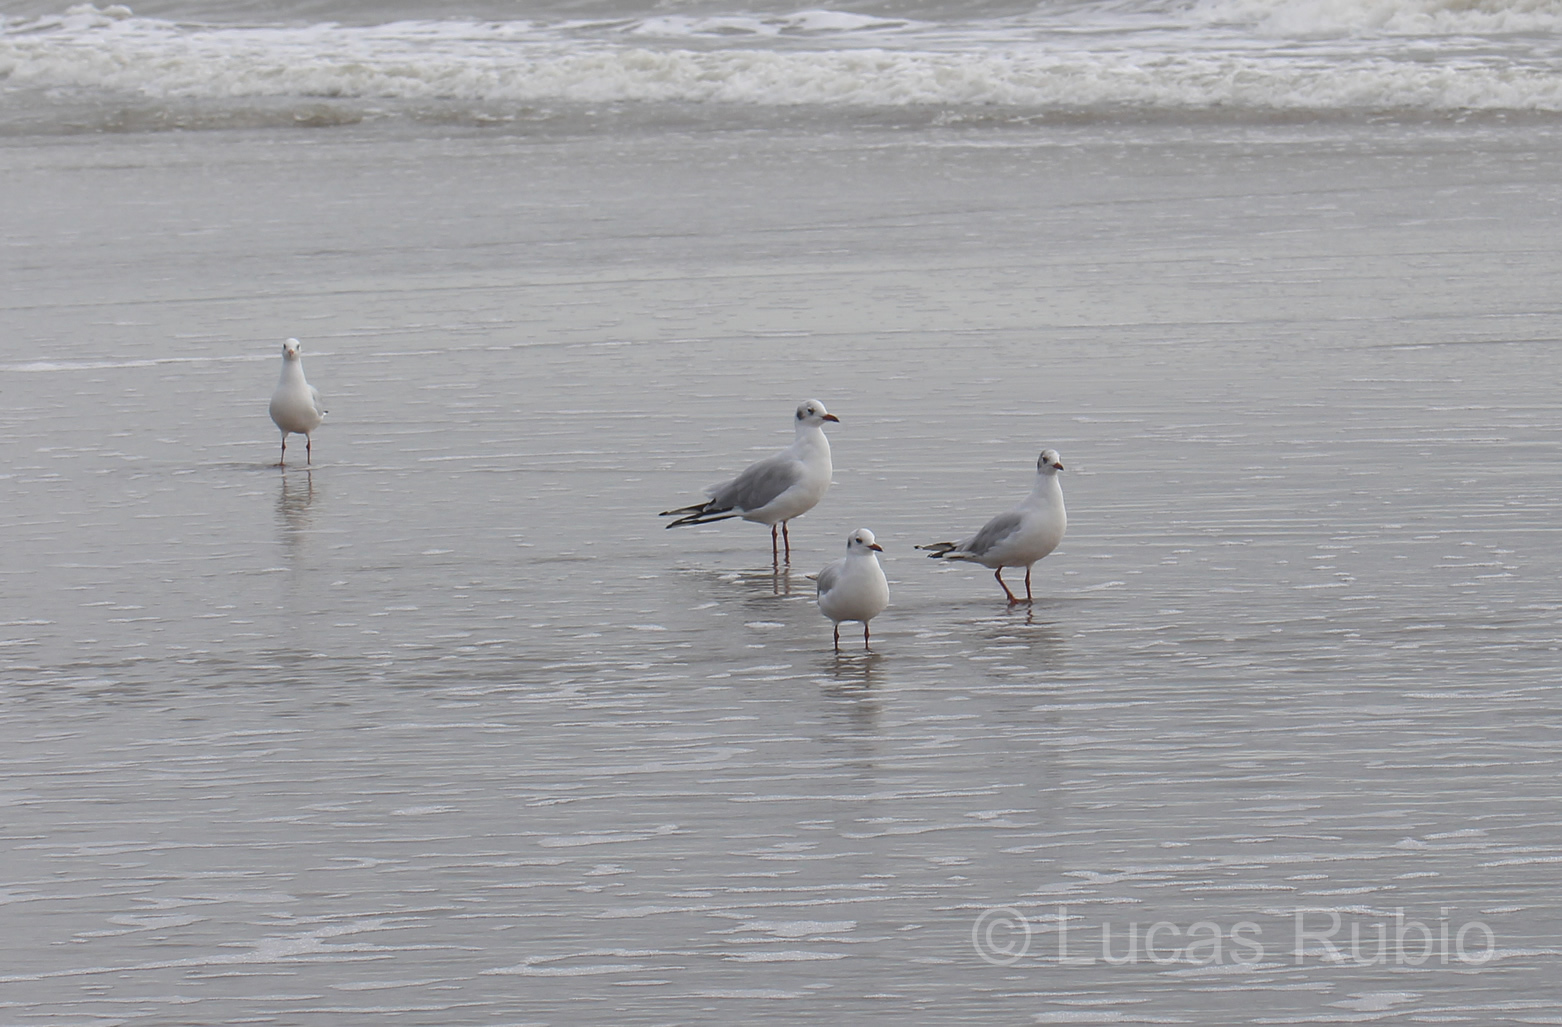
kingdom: Animalia
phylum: Chordata
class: Aves
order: Charadriiformes
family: Laridae
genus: Chroicocephalus
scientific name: Chroicocephalus maculipennis
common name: Brown-hooded gull
